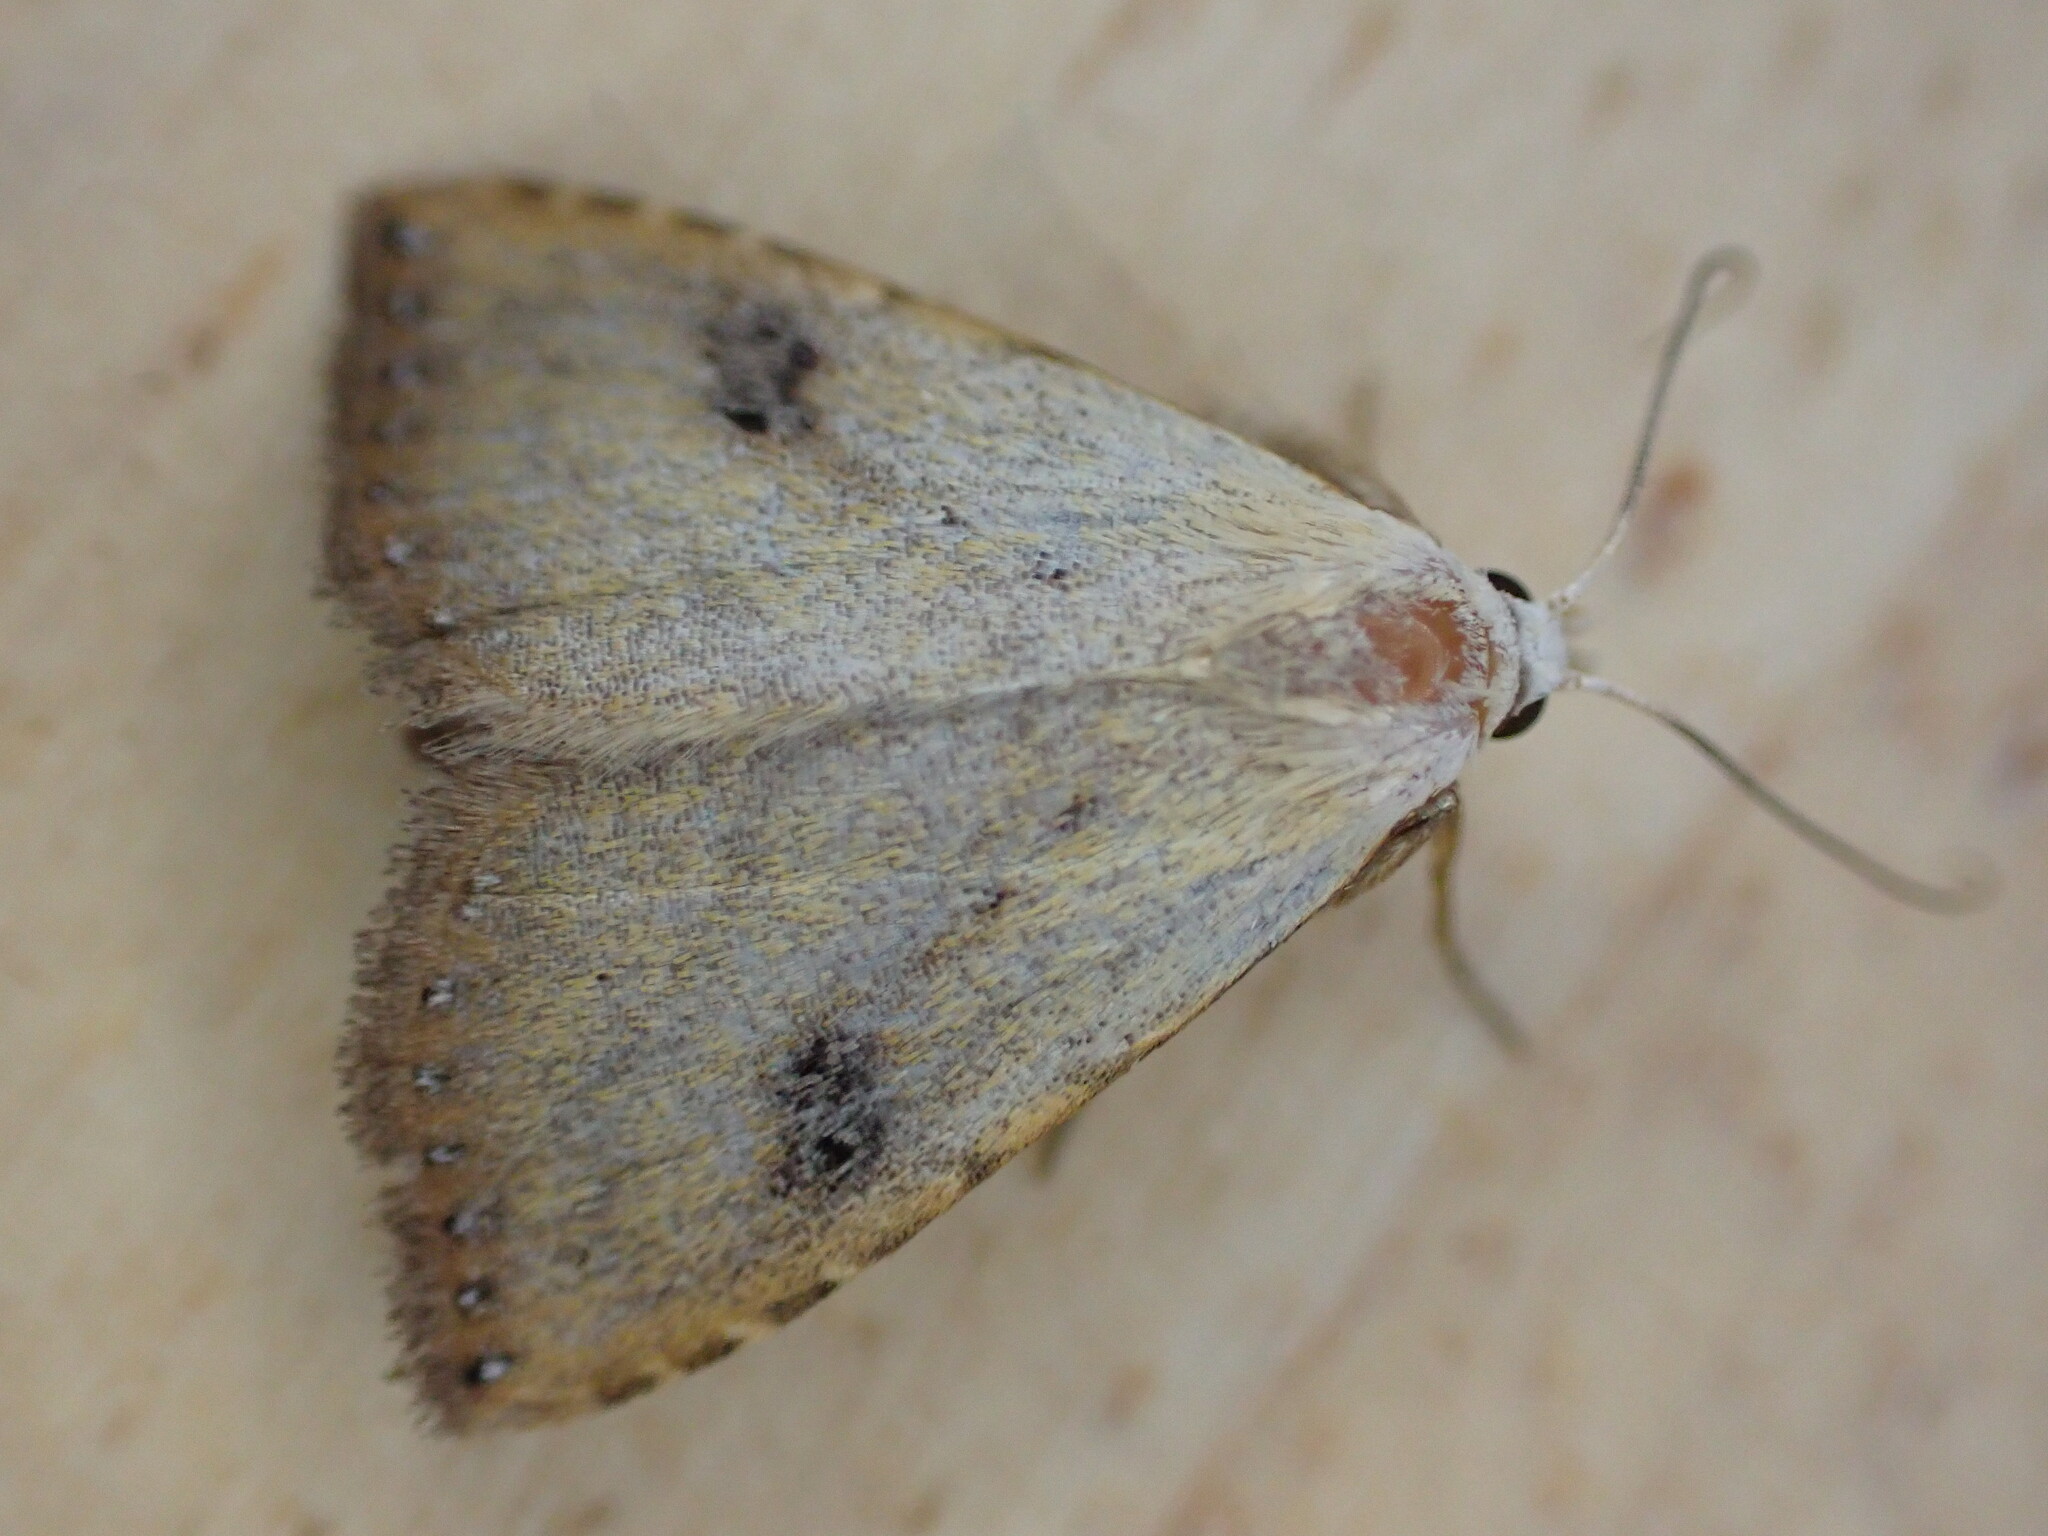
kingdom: Animalia
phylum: Arthropoda
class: Insecta
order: Lepidoptera
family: Erebidae
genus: Rivula
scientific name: Rivula sericealis
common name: Straw dot
